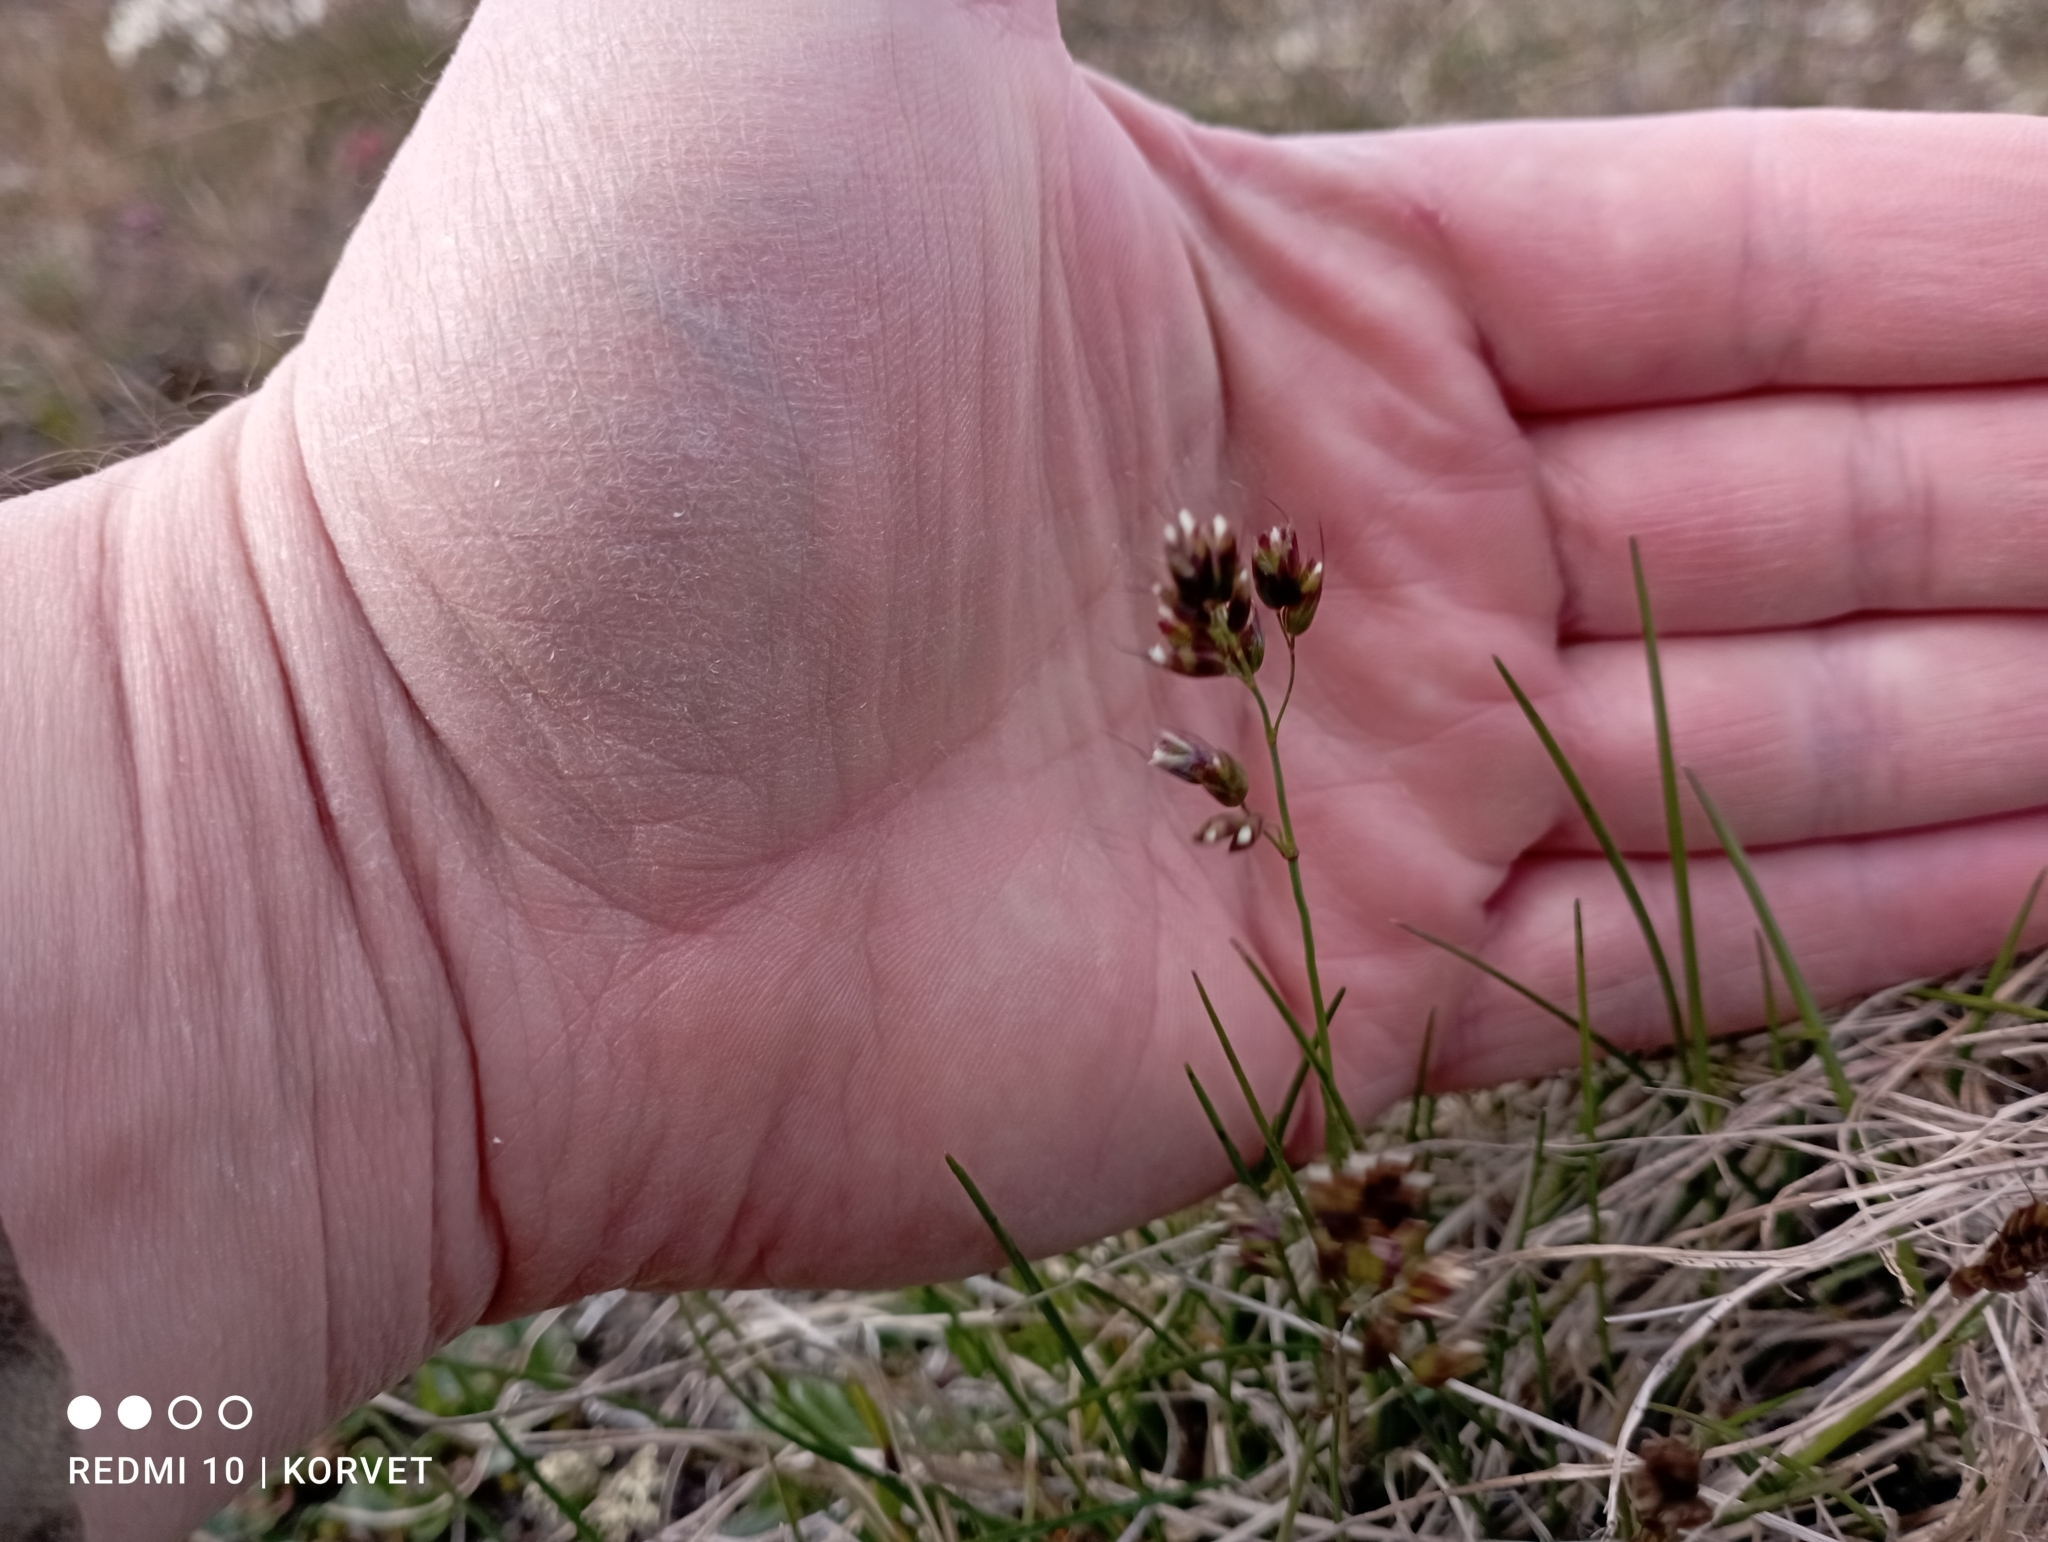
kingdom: Plantae
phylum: Tracheophyta
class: Liliopsida
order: Poales
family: Poaceae
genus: Anthoxanthum
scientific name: Anthoxanthum monticola
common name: Alpine sweetgrass
